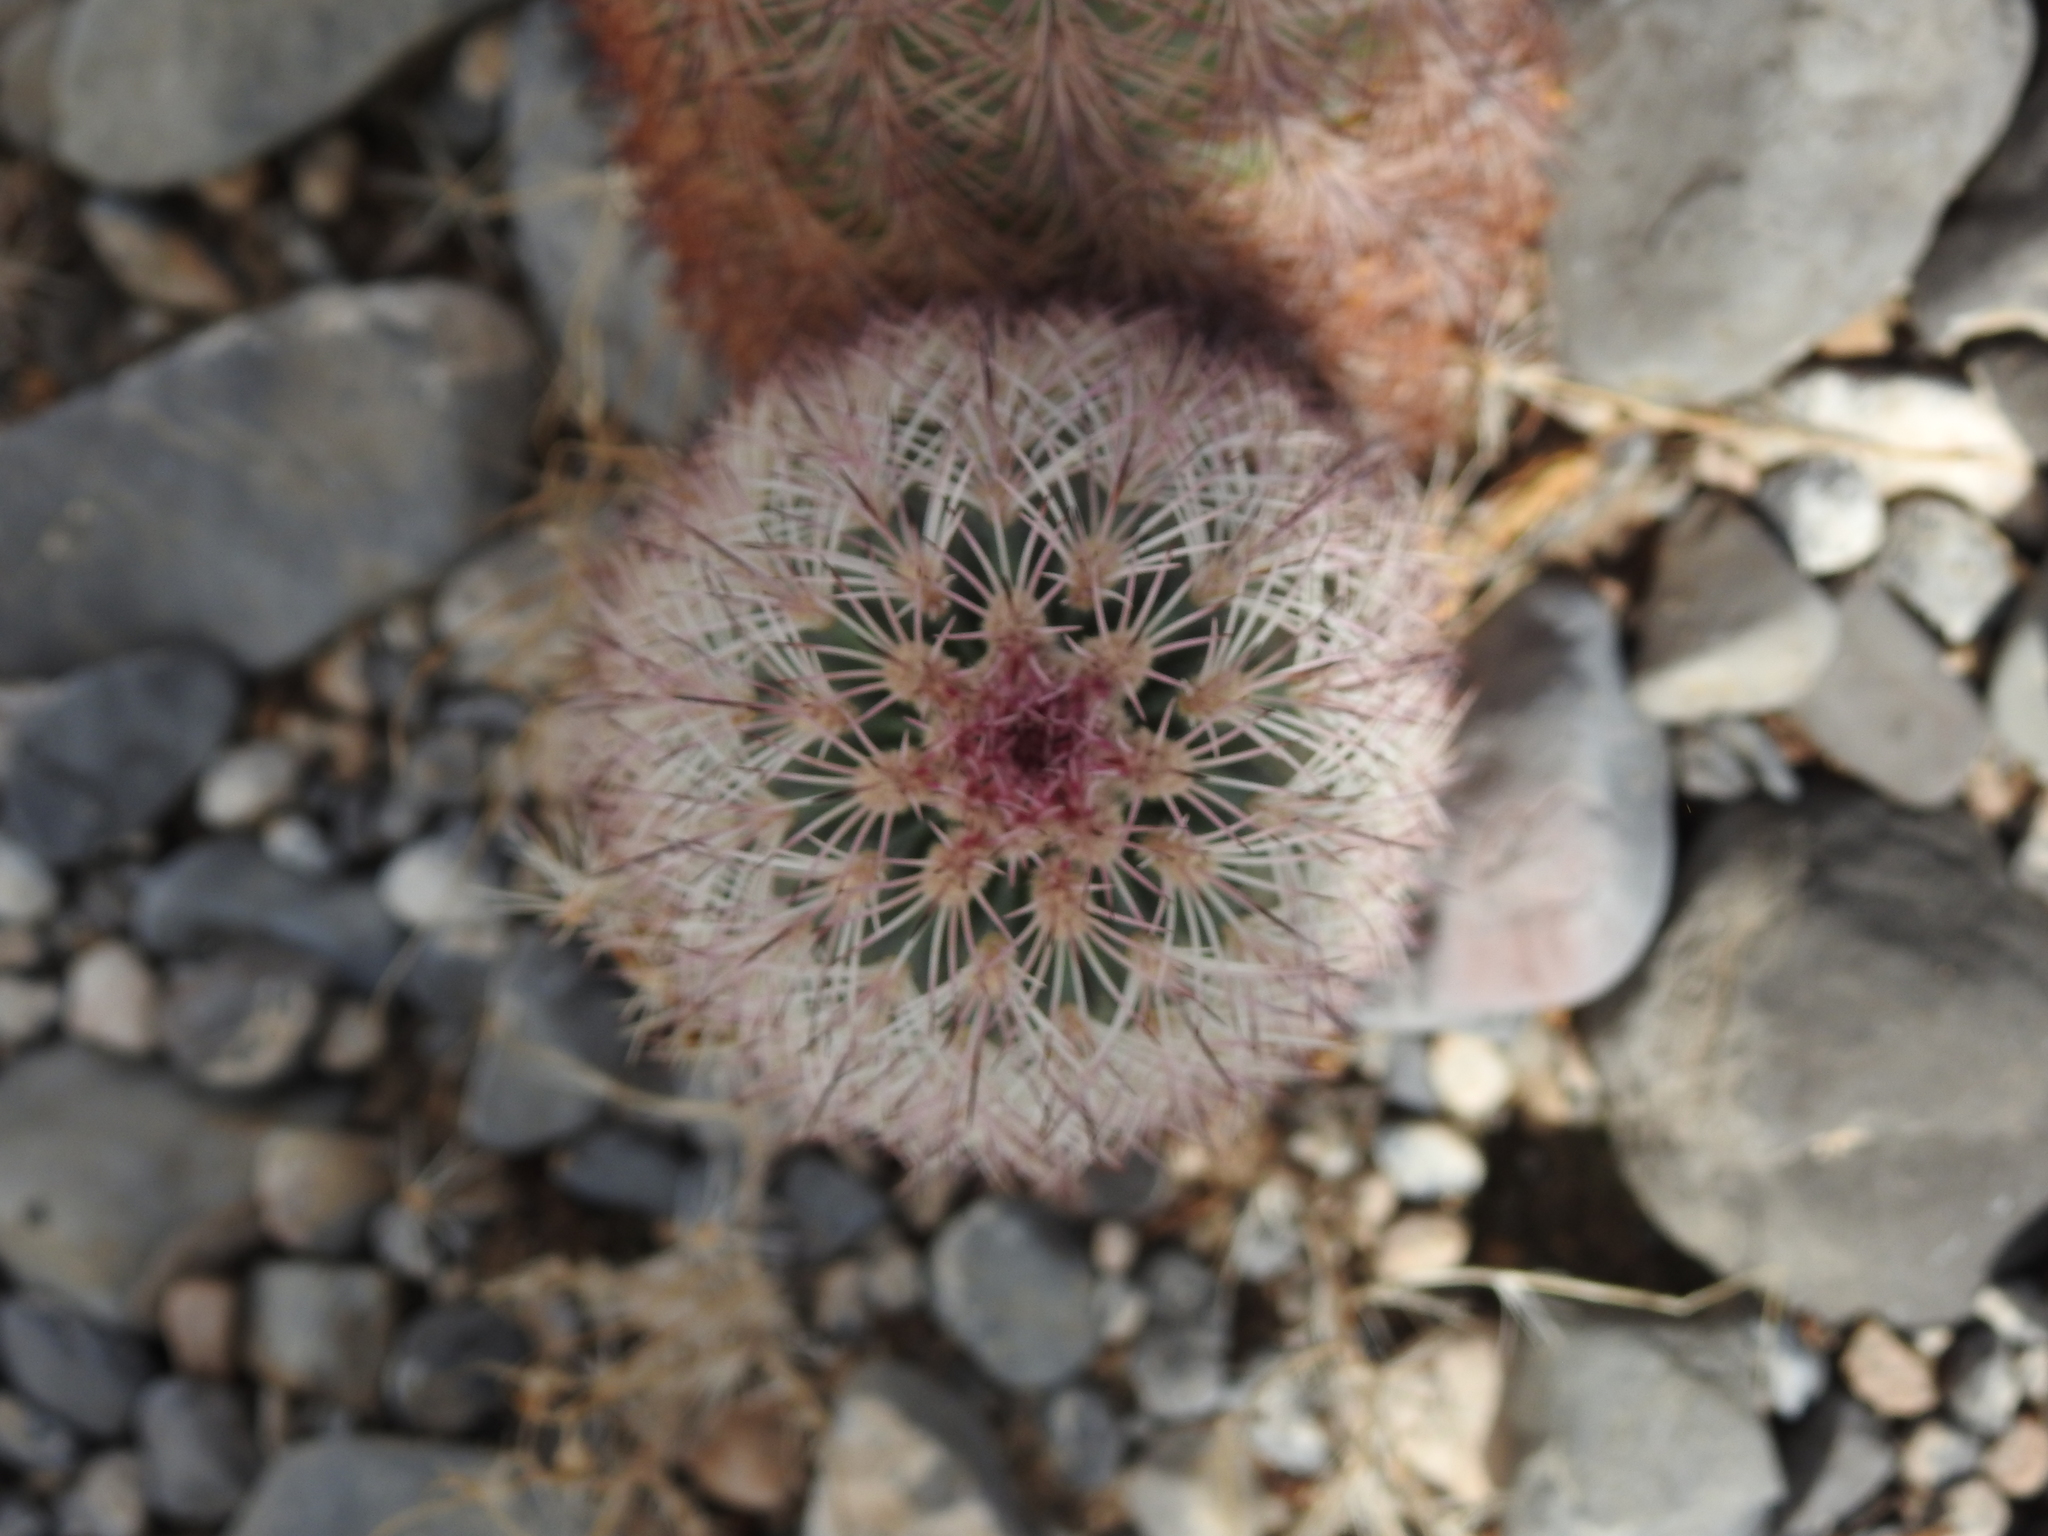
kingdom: Plantae
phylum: Tracheophyta
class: Magnoliopsida
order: Caryophyllales
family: Cactaceae
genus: Echinocereus
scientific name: Echinocereus dasyacanthus
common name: Spiny hedgehog cactus
